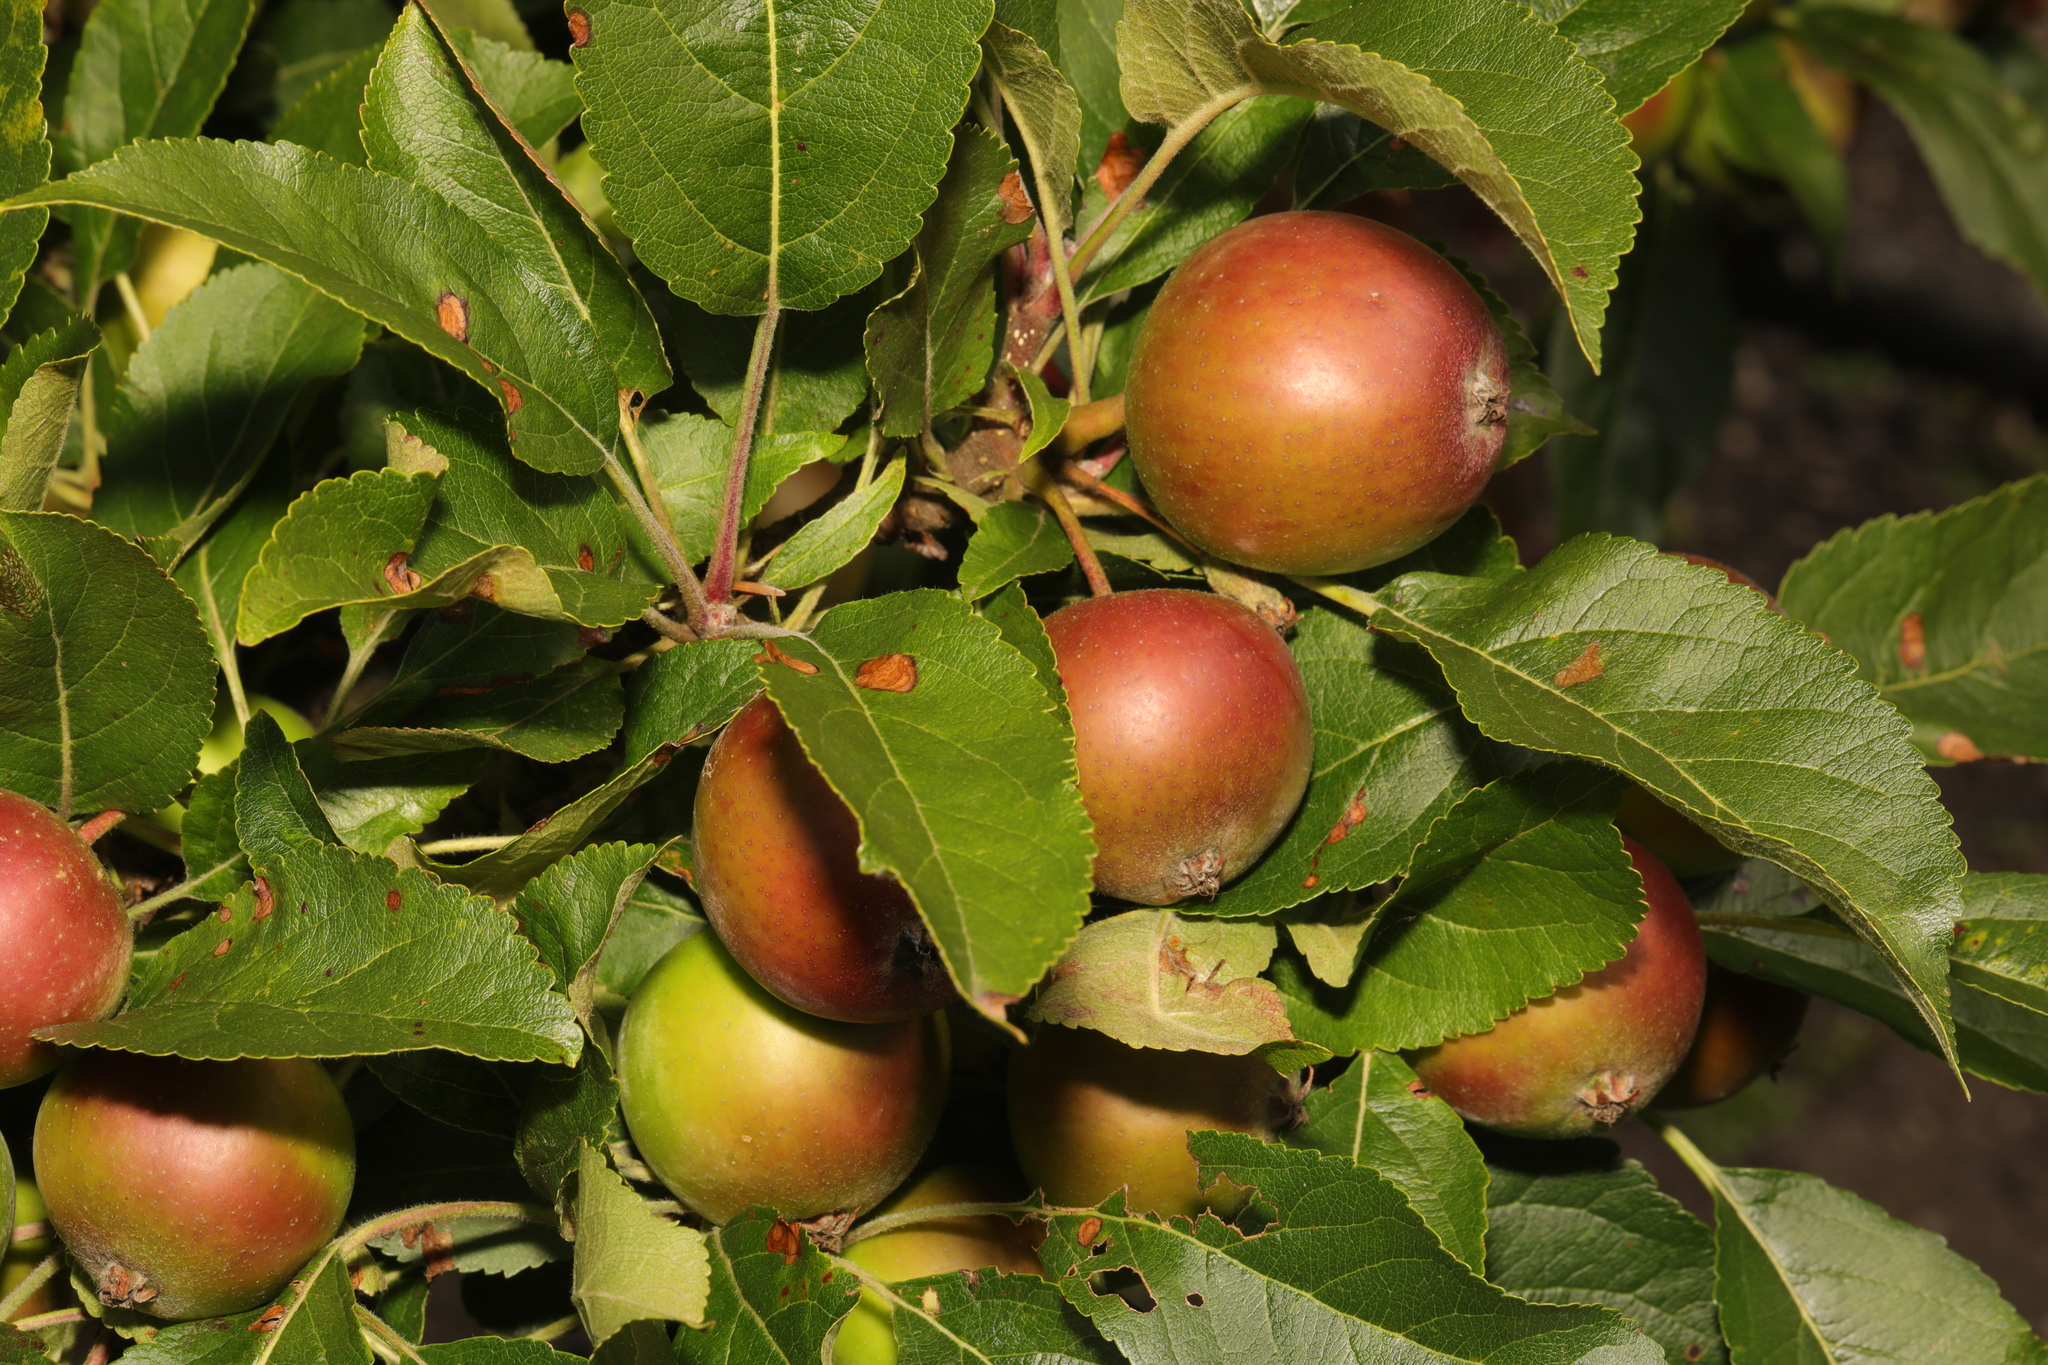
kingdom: Plantae
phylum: Tracheophyta
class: Magnoliopsida
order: Rosales
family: Rosaceae
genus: Malus
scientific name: Malus domestica
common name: Apple
